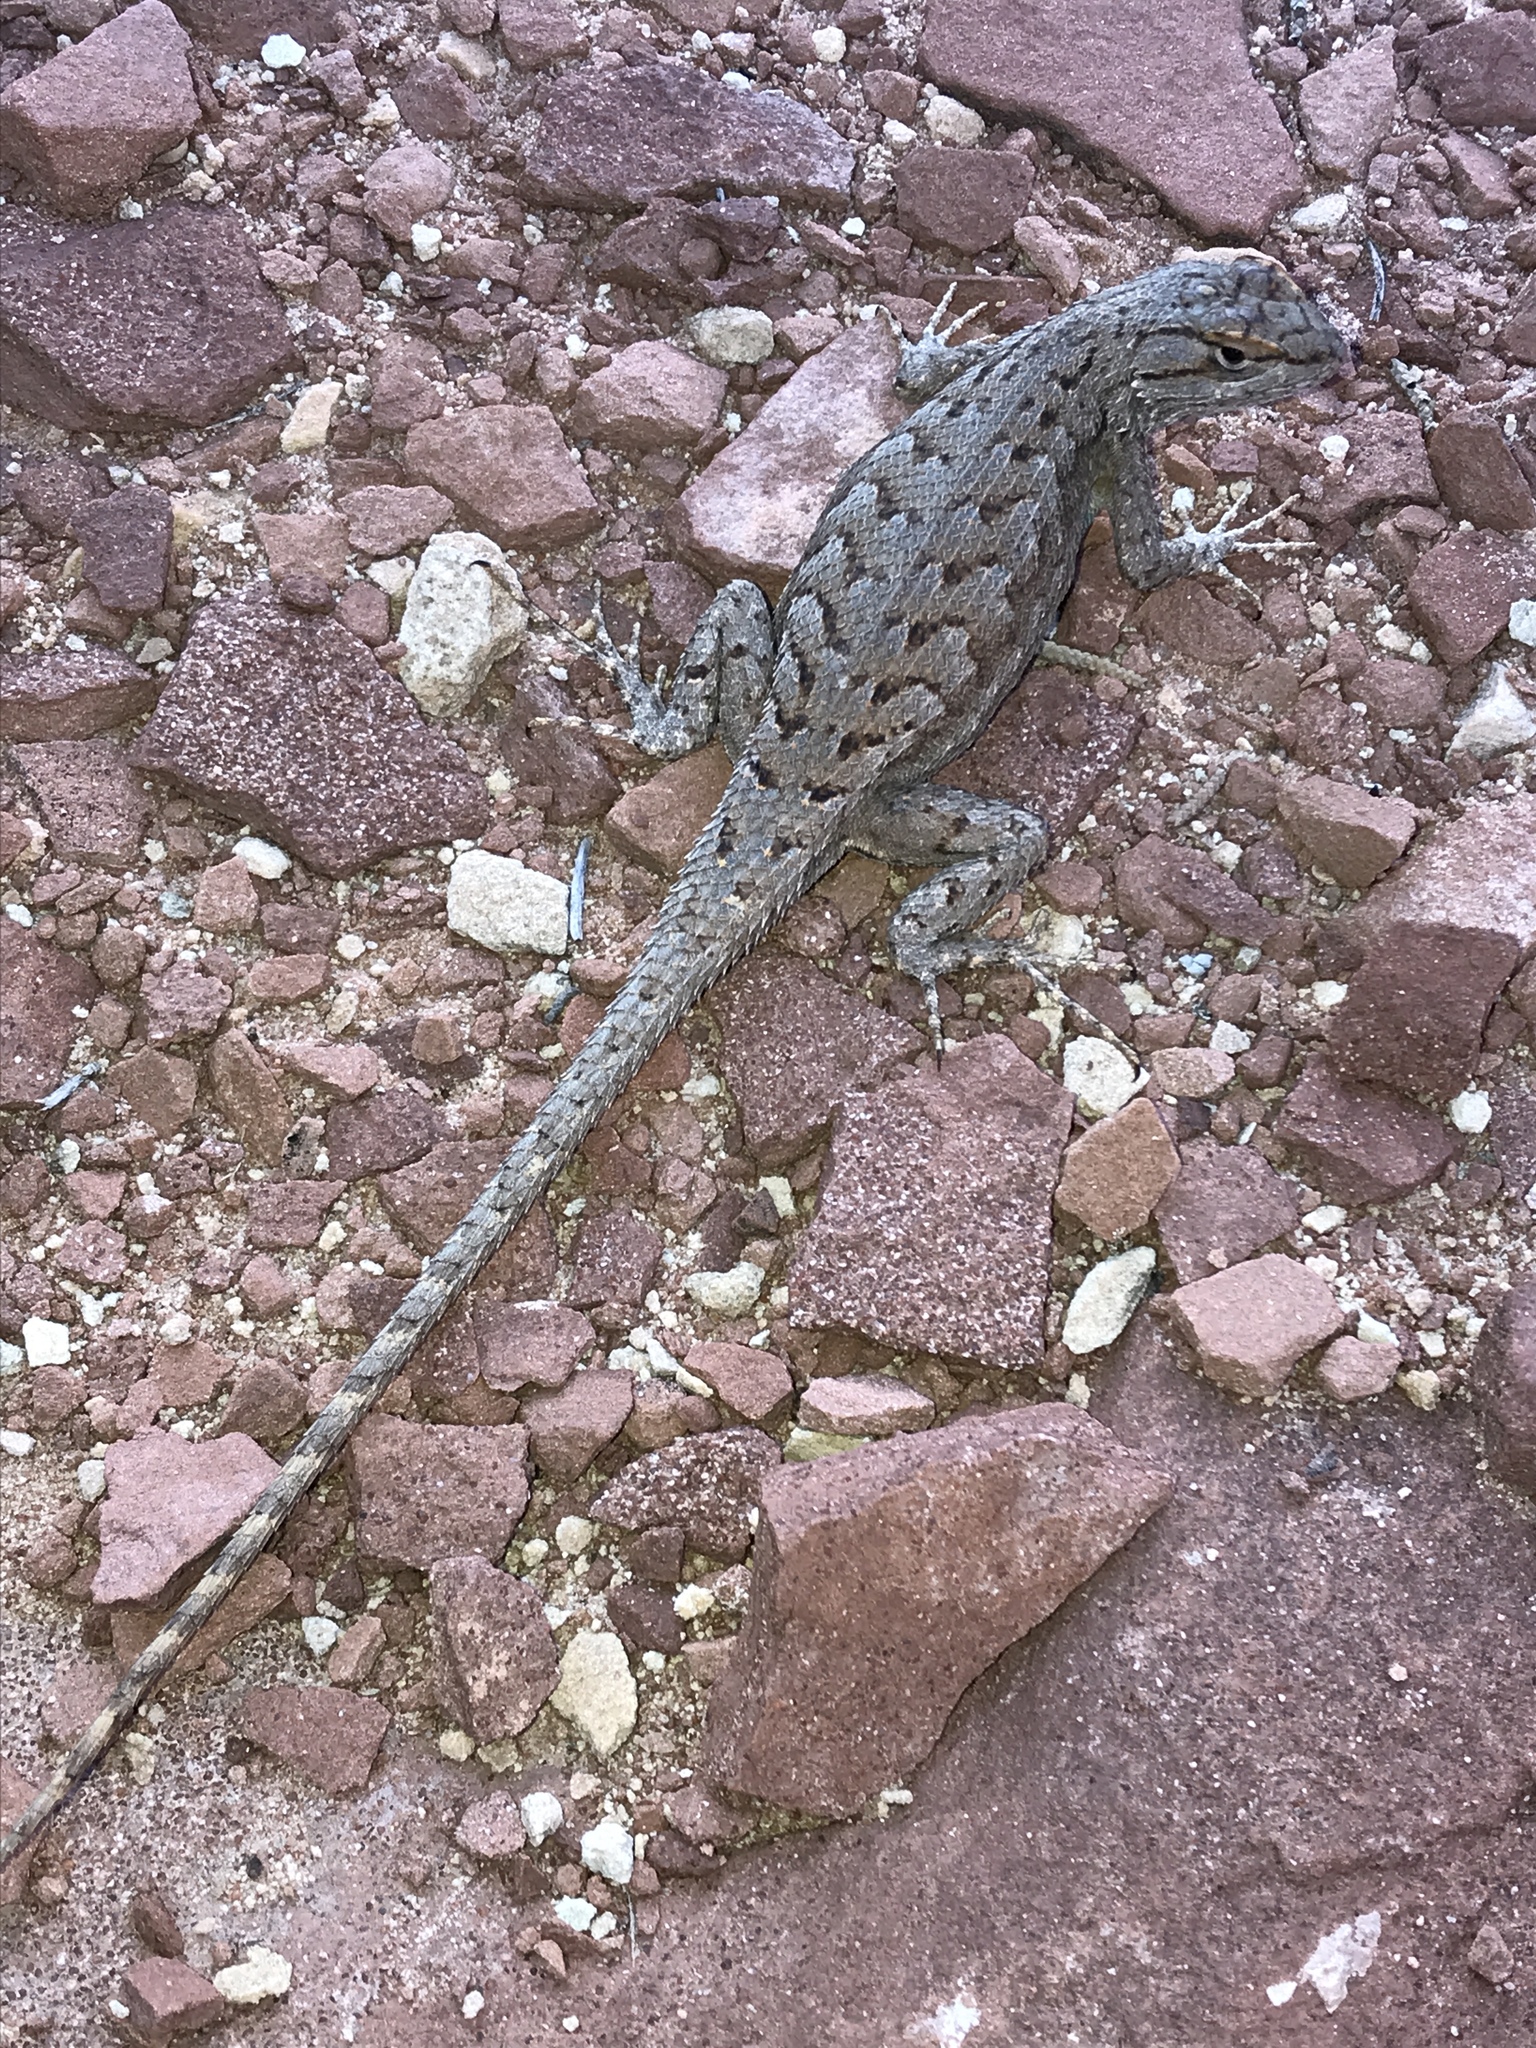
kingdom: Animalia
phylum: Chordata
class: Squamata
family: Phrynosomatidae
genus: Sceloporus
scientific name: Sceloporus tristichus
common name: Plateau fence lizard
